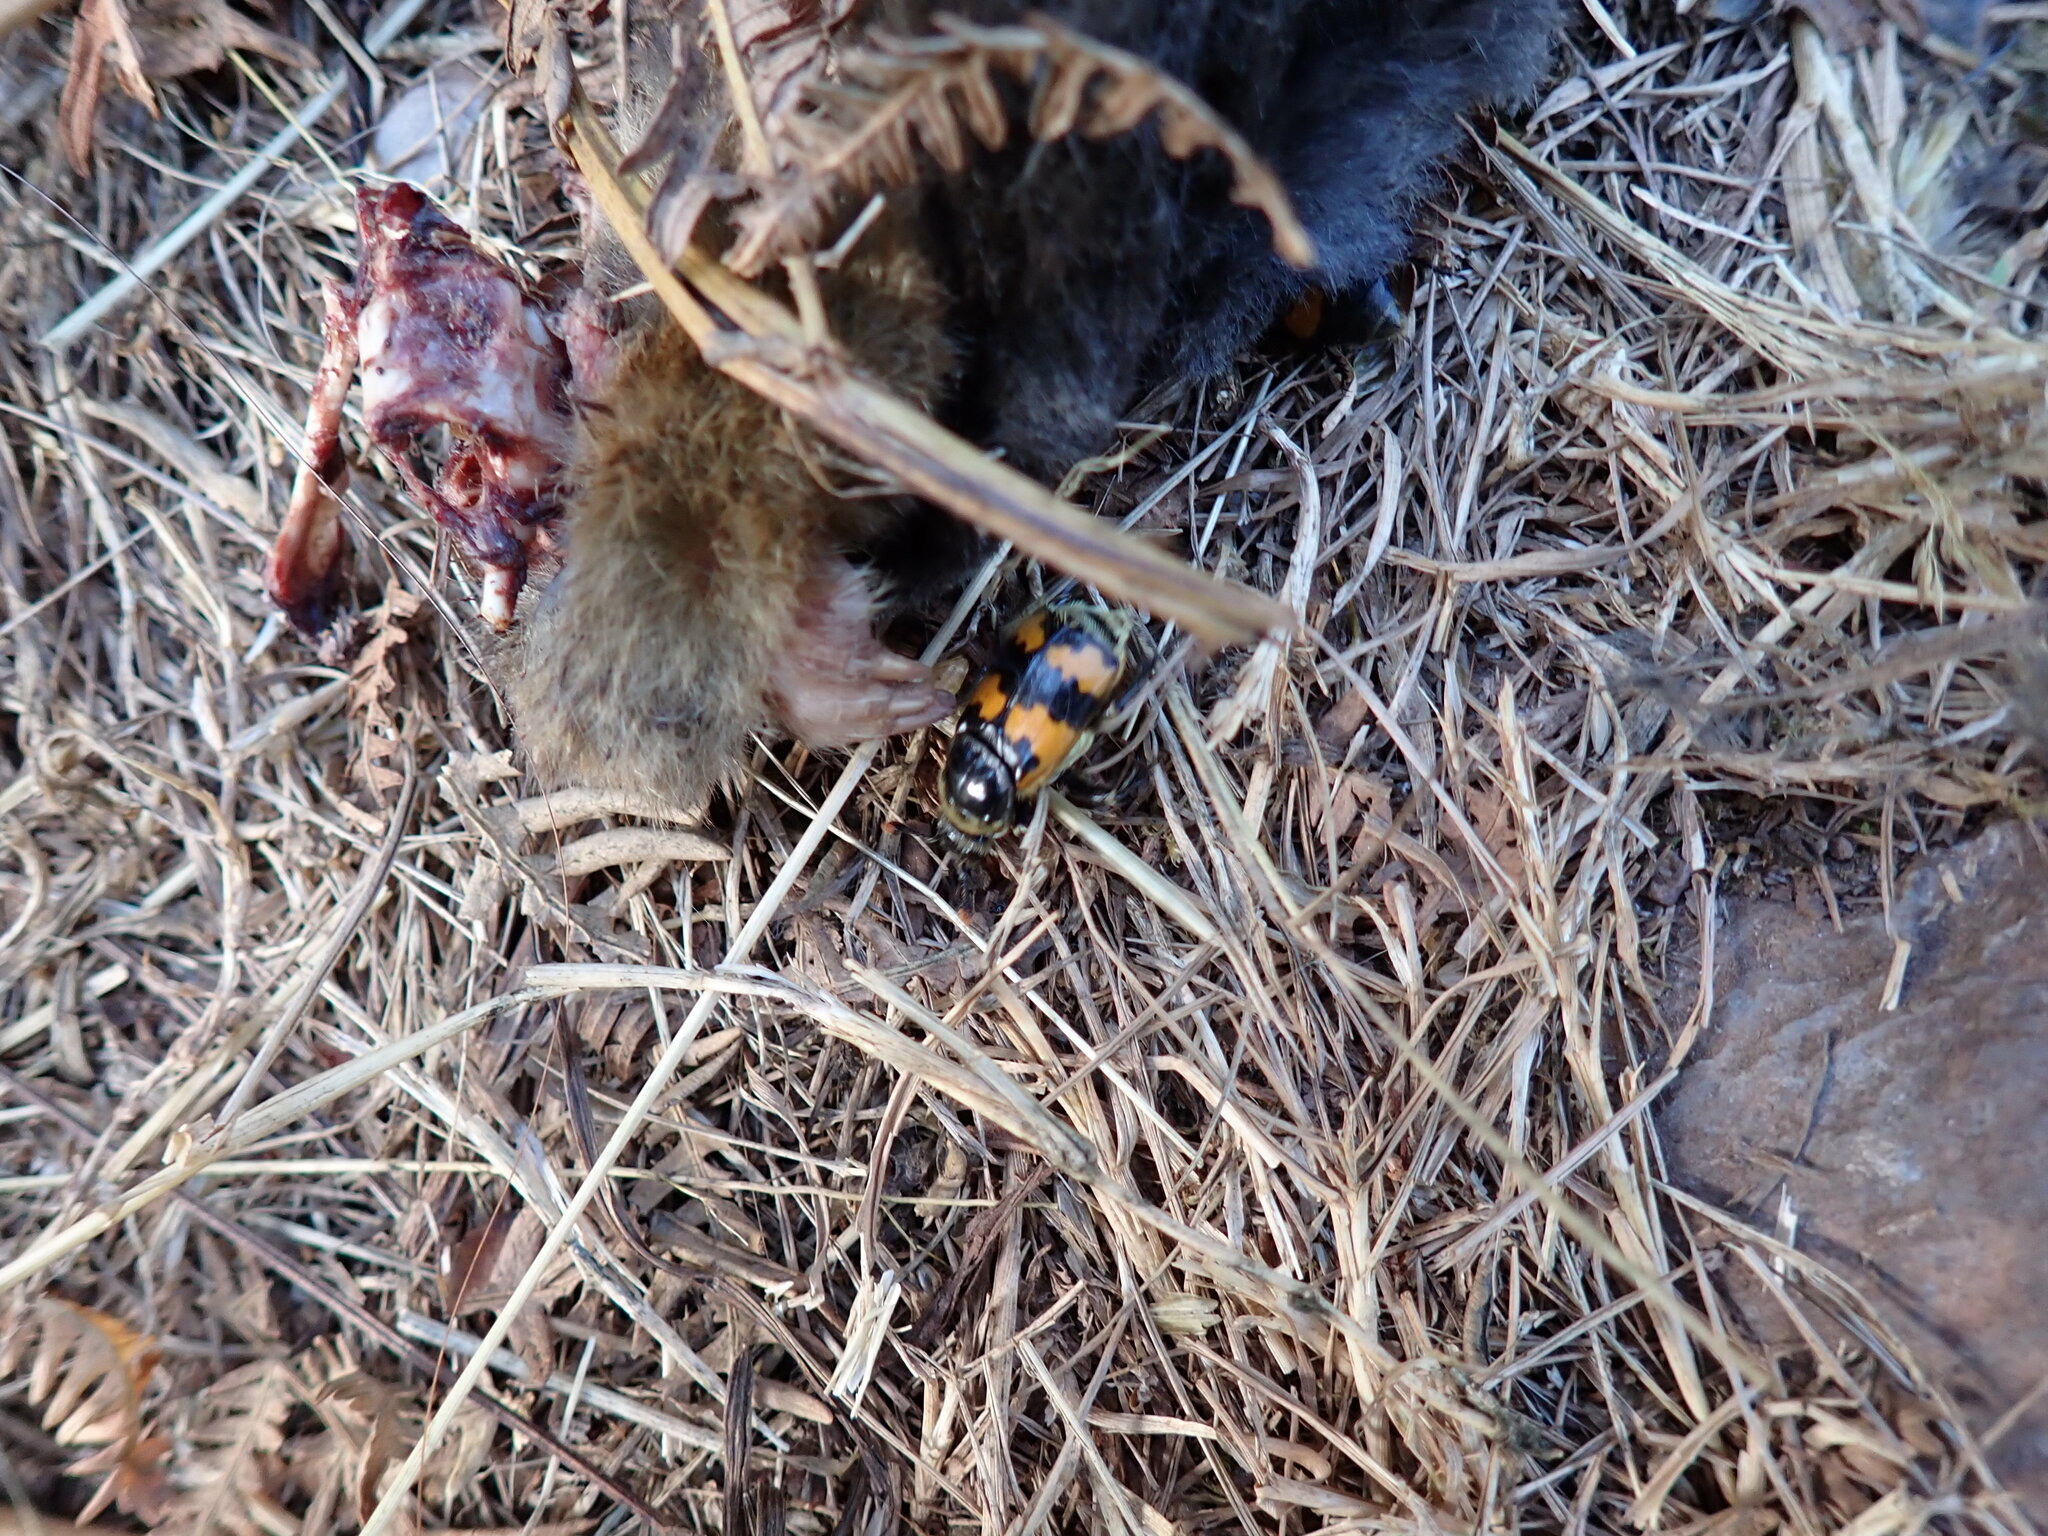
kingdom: Animalia
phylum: Chordata
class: Mammalia
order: Soricomorpha
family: Talpidae
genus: Talpa
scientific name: Talpa europaea
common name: European mole
